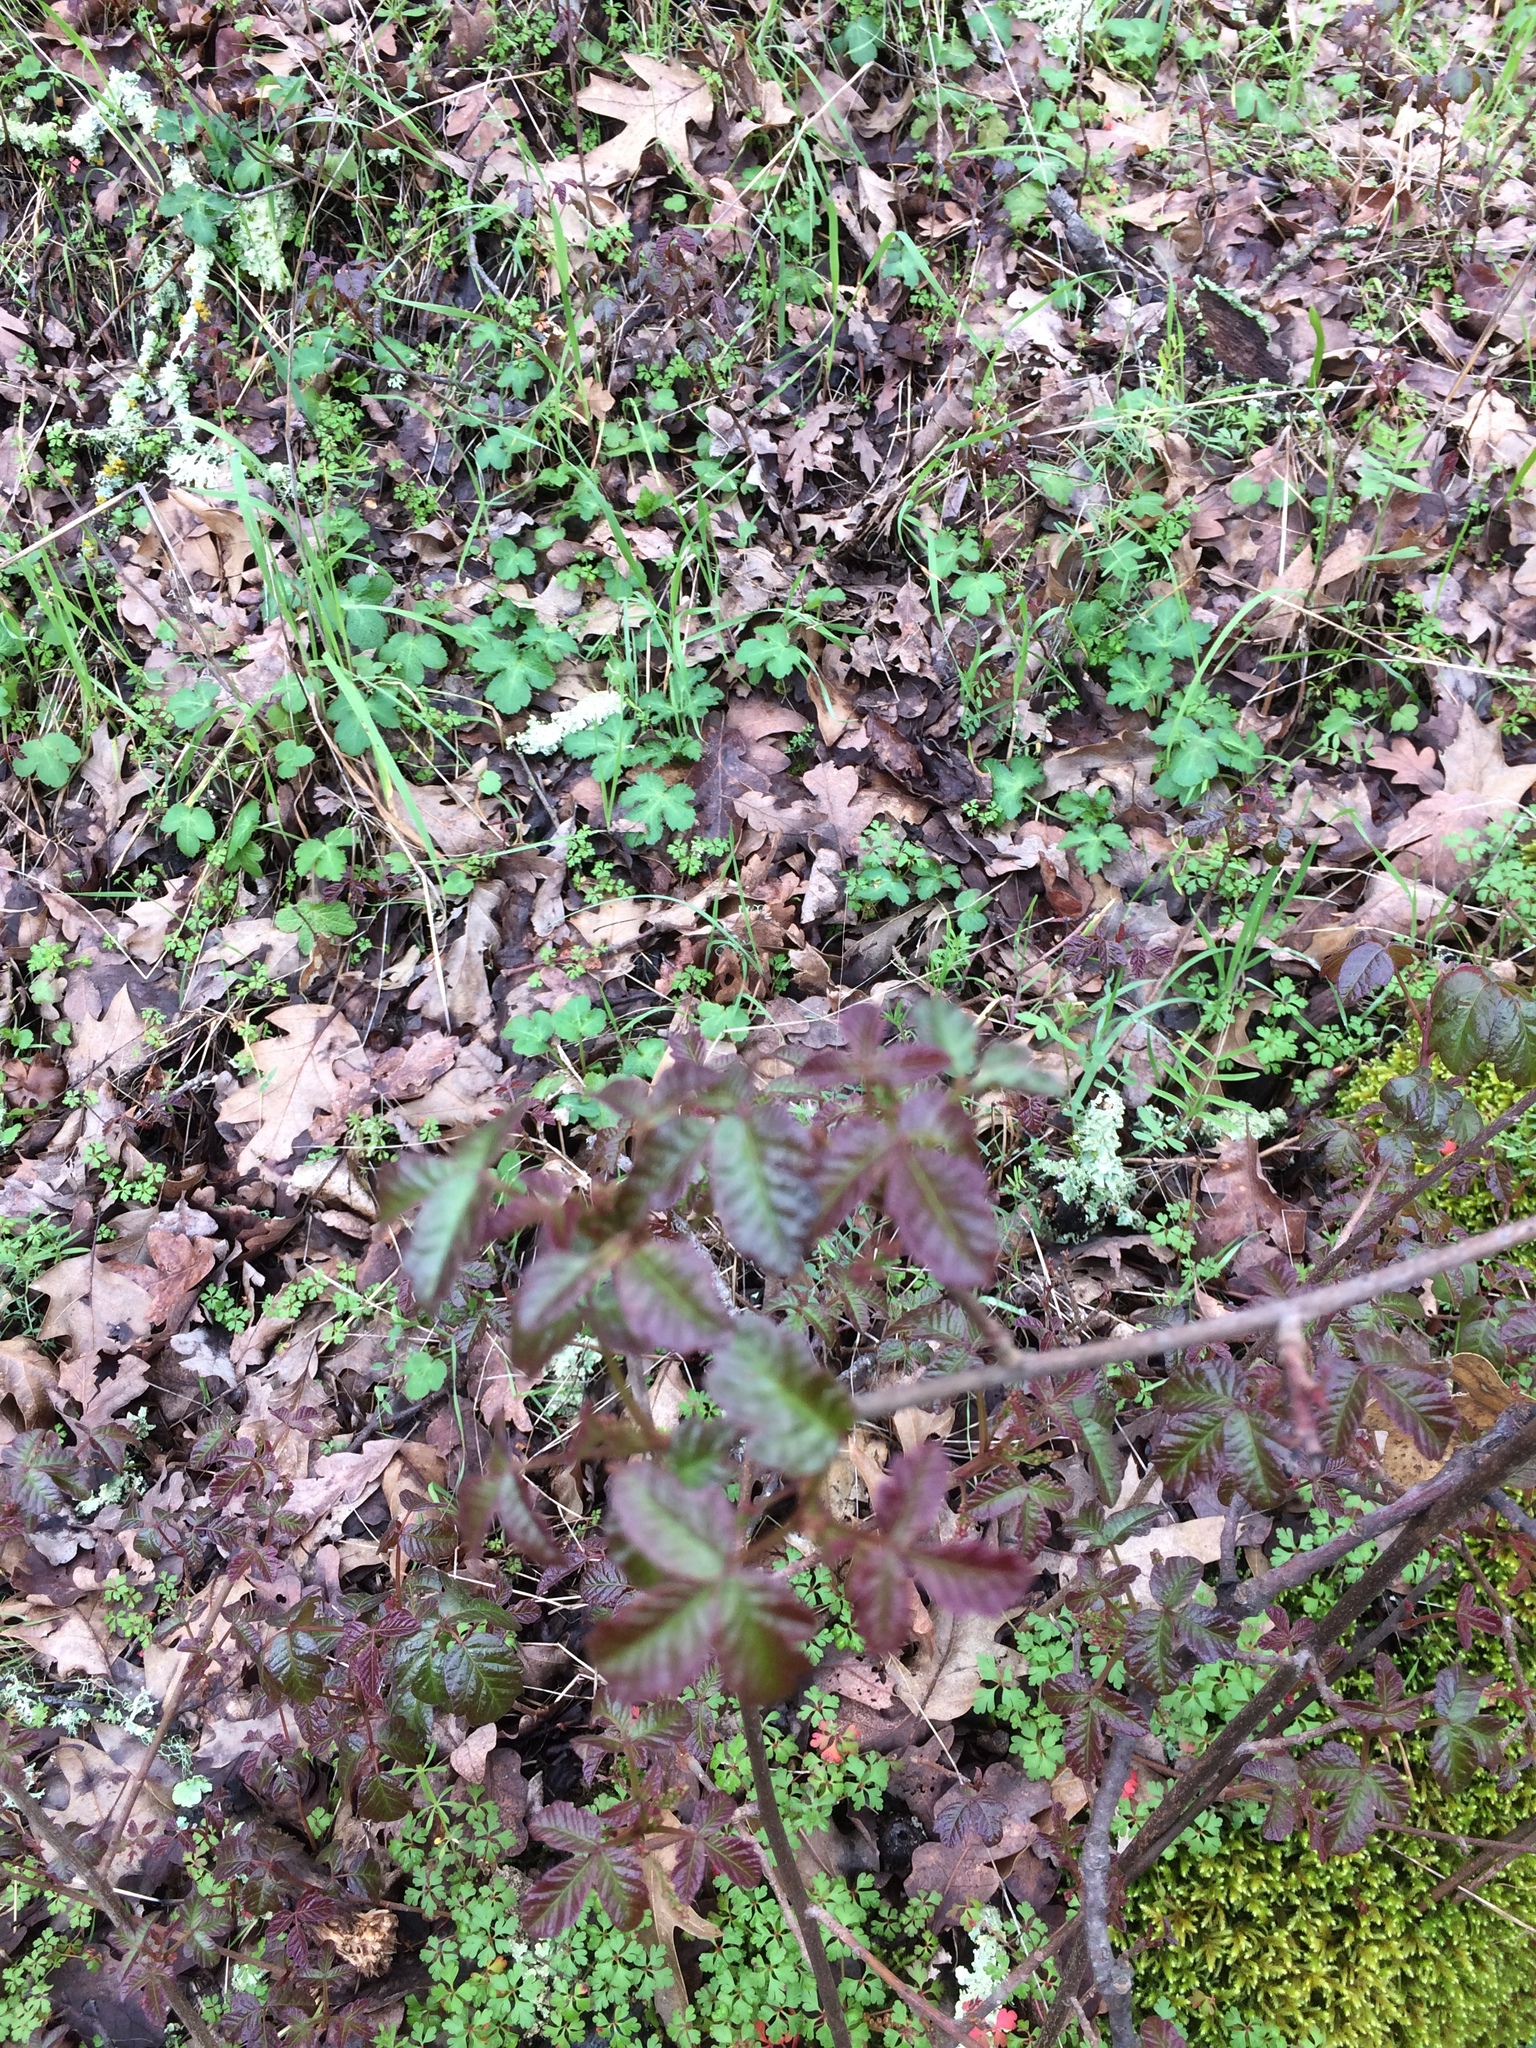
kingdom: Plantae
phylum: Tracheophyta
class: Magnoliopsida
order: Sapindales
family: Anacardiaceae
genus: Toxicodendron
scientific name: Toxicodendron diversilobum
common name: Pacific poison-oak
